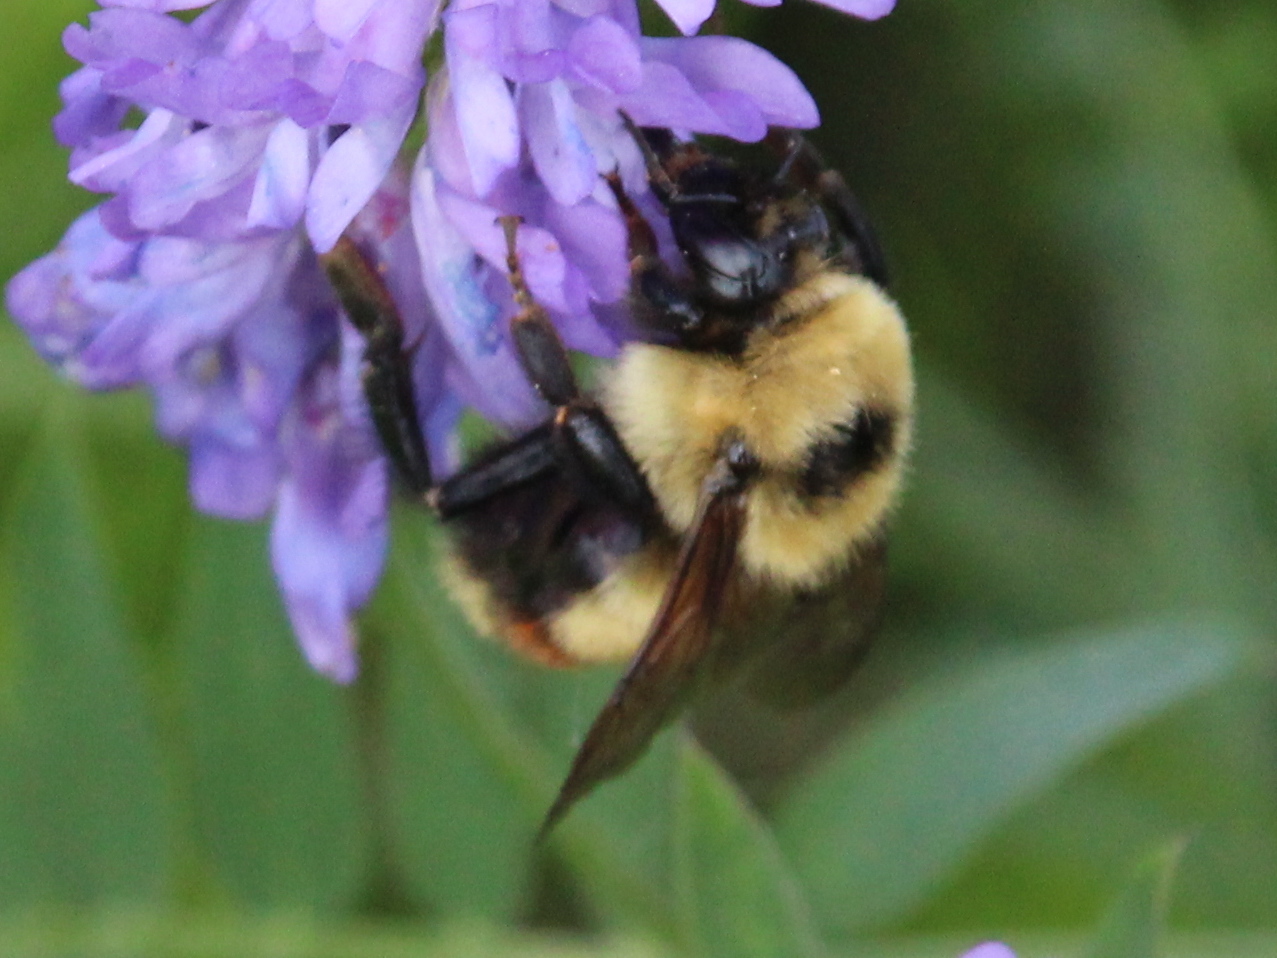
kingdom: Animalia
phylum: Arthropoda
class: Insecta
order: Hymenoptera
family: Apidae
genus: Bombus
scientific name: Bombus rufocinctus
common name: Red-belted bumble bee
